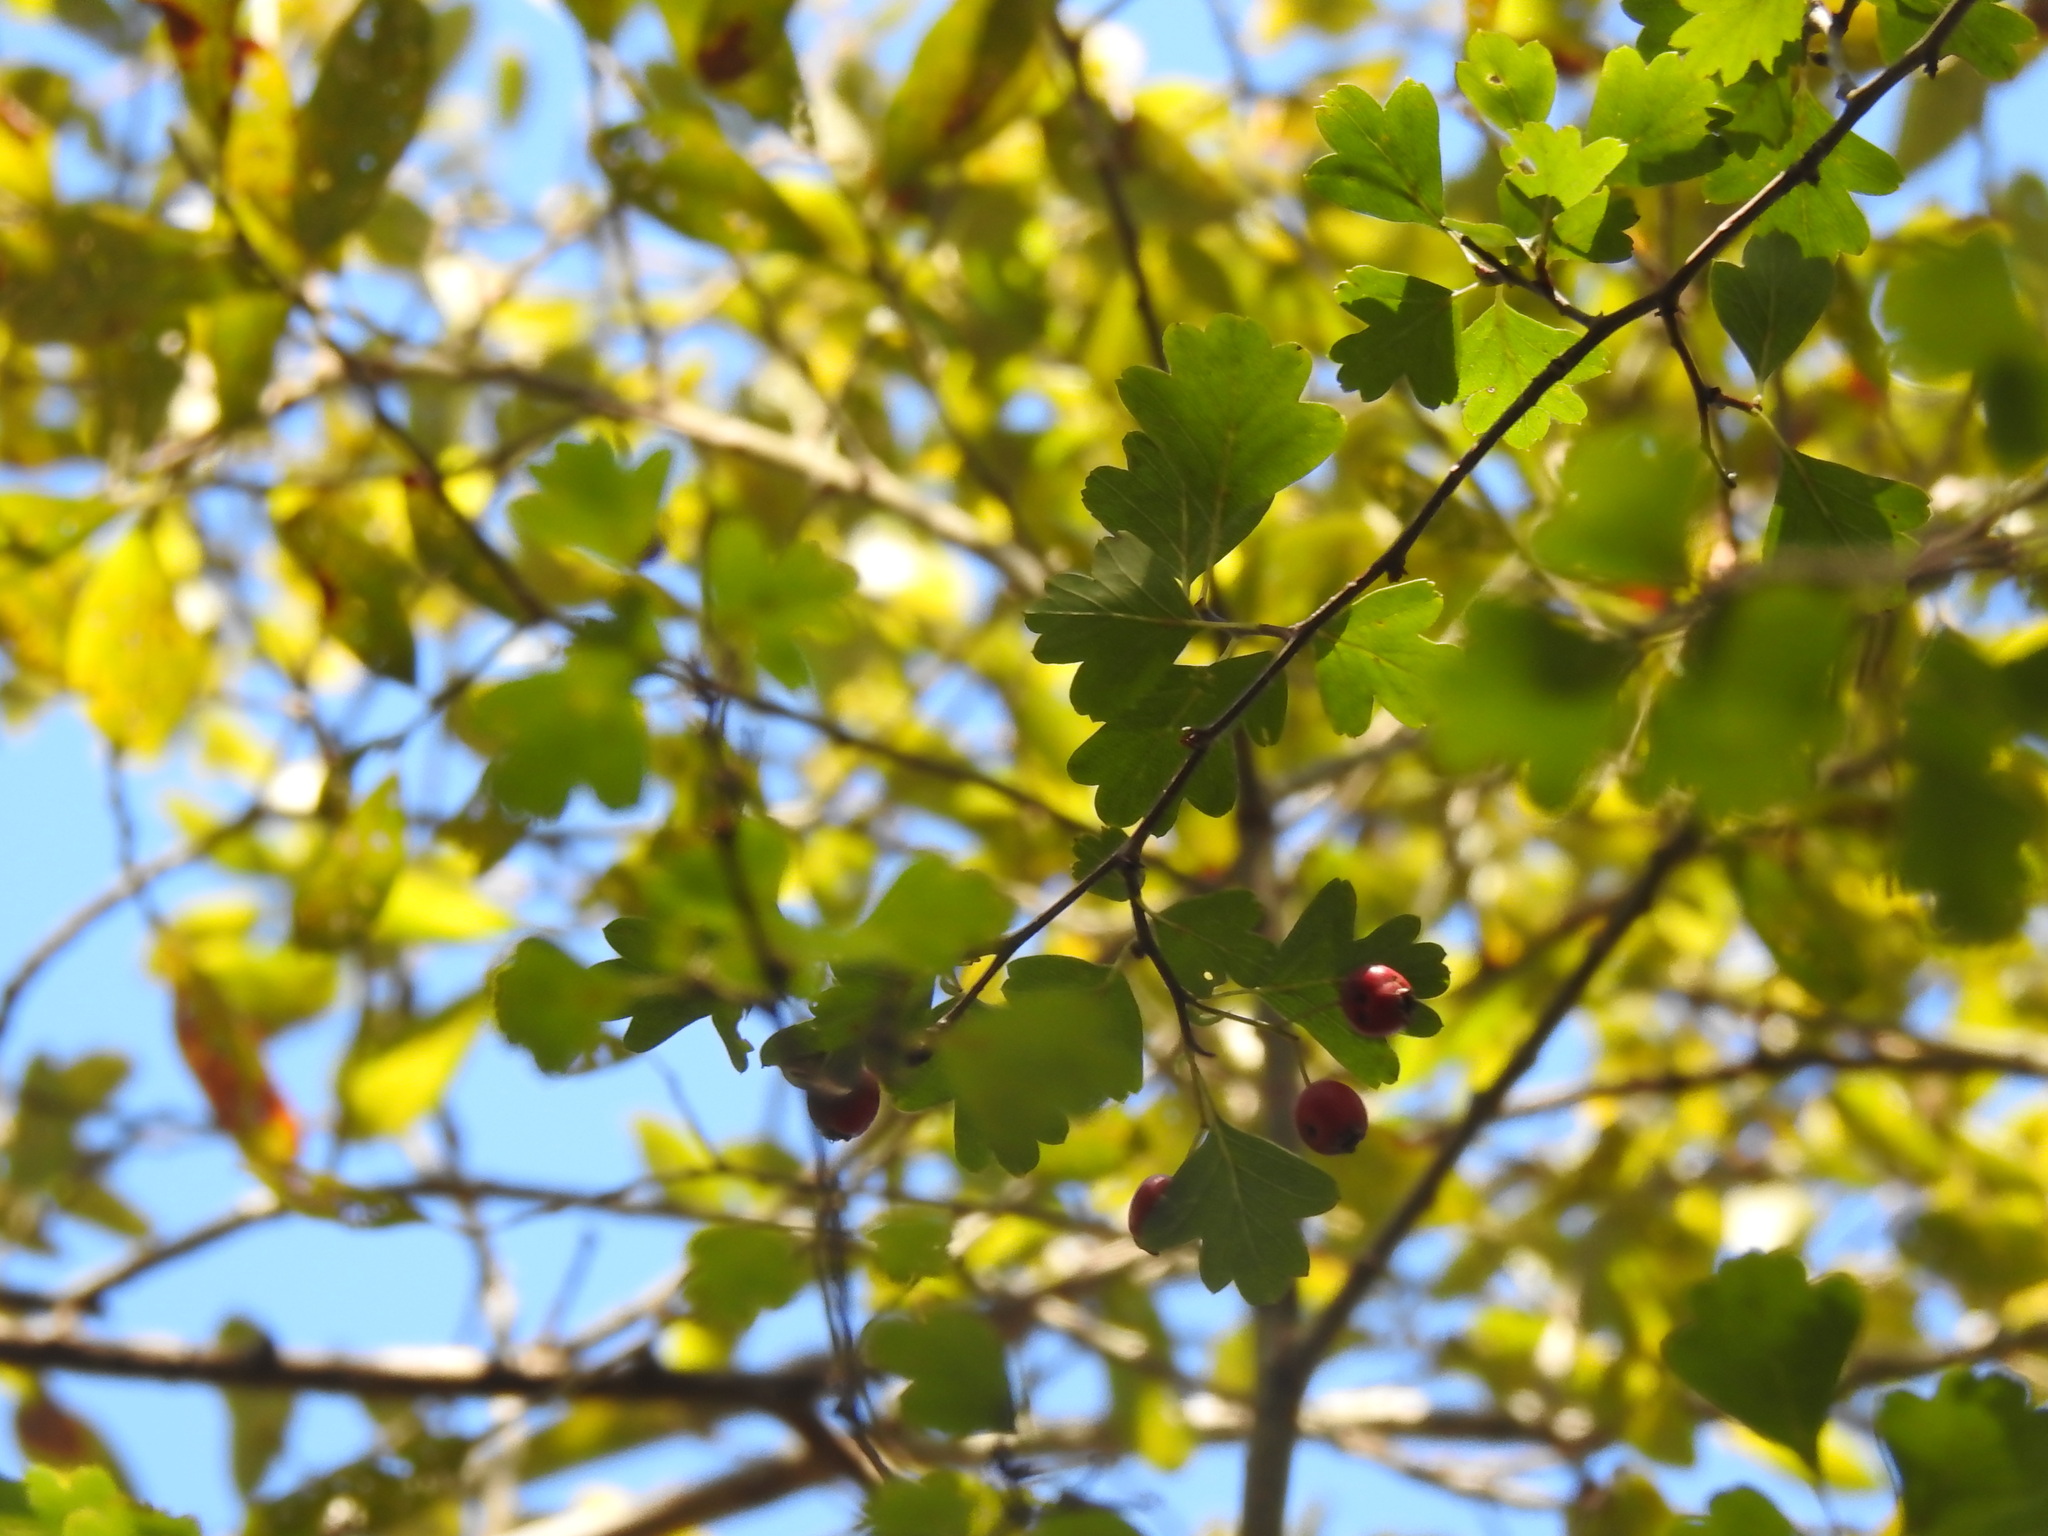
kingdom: Plantae
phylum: Tracheophyta
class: Magnoliopsida
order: Rosales
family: Rosaceae
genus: Crataegus
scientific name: Crataegus monogyna
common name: Hawthorn
